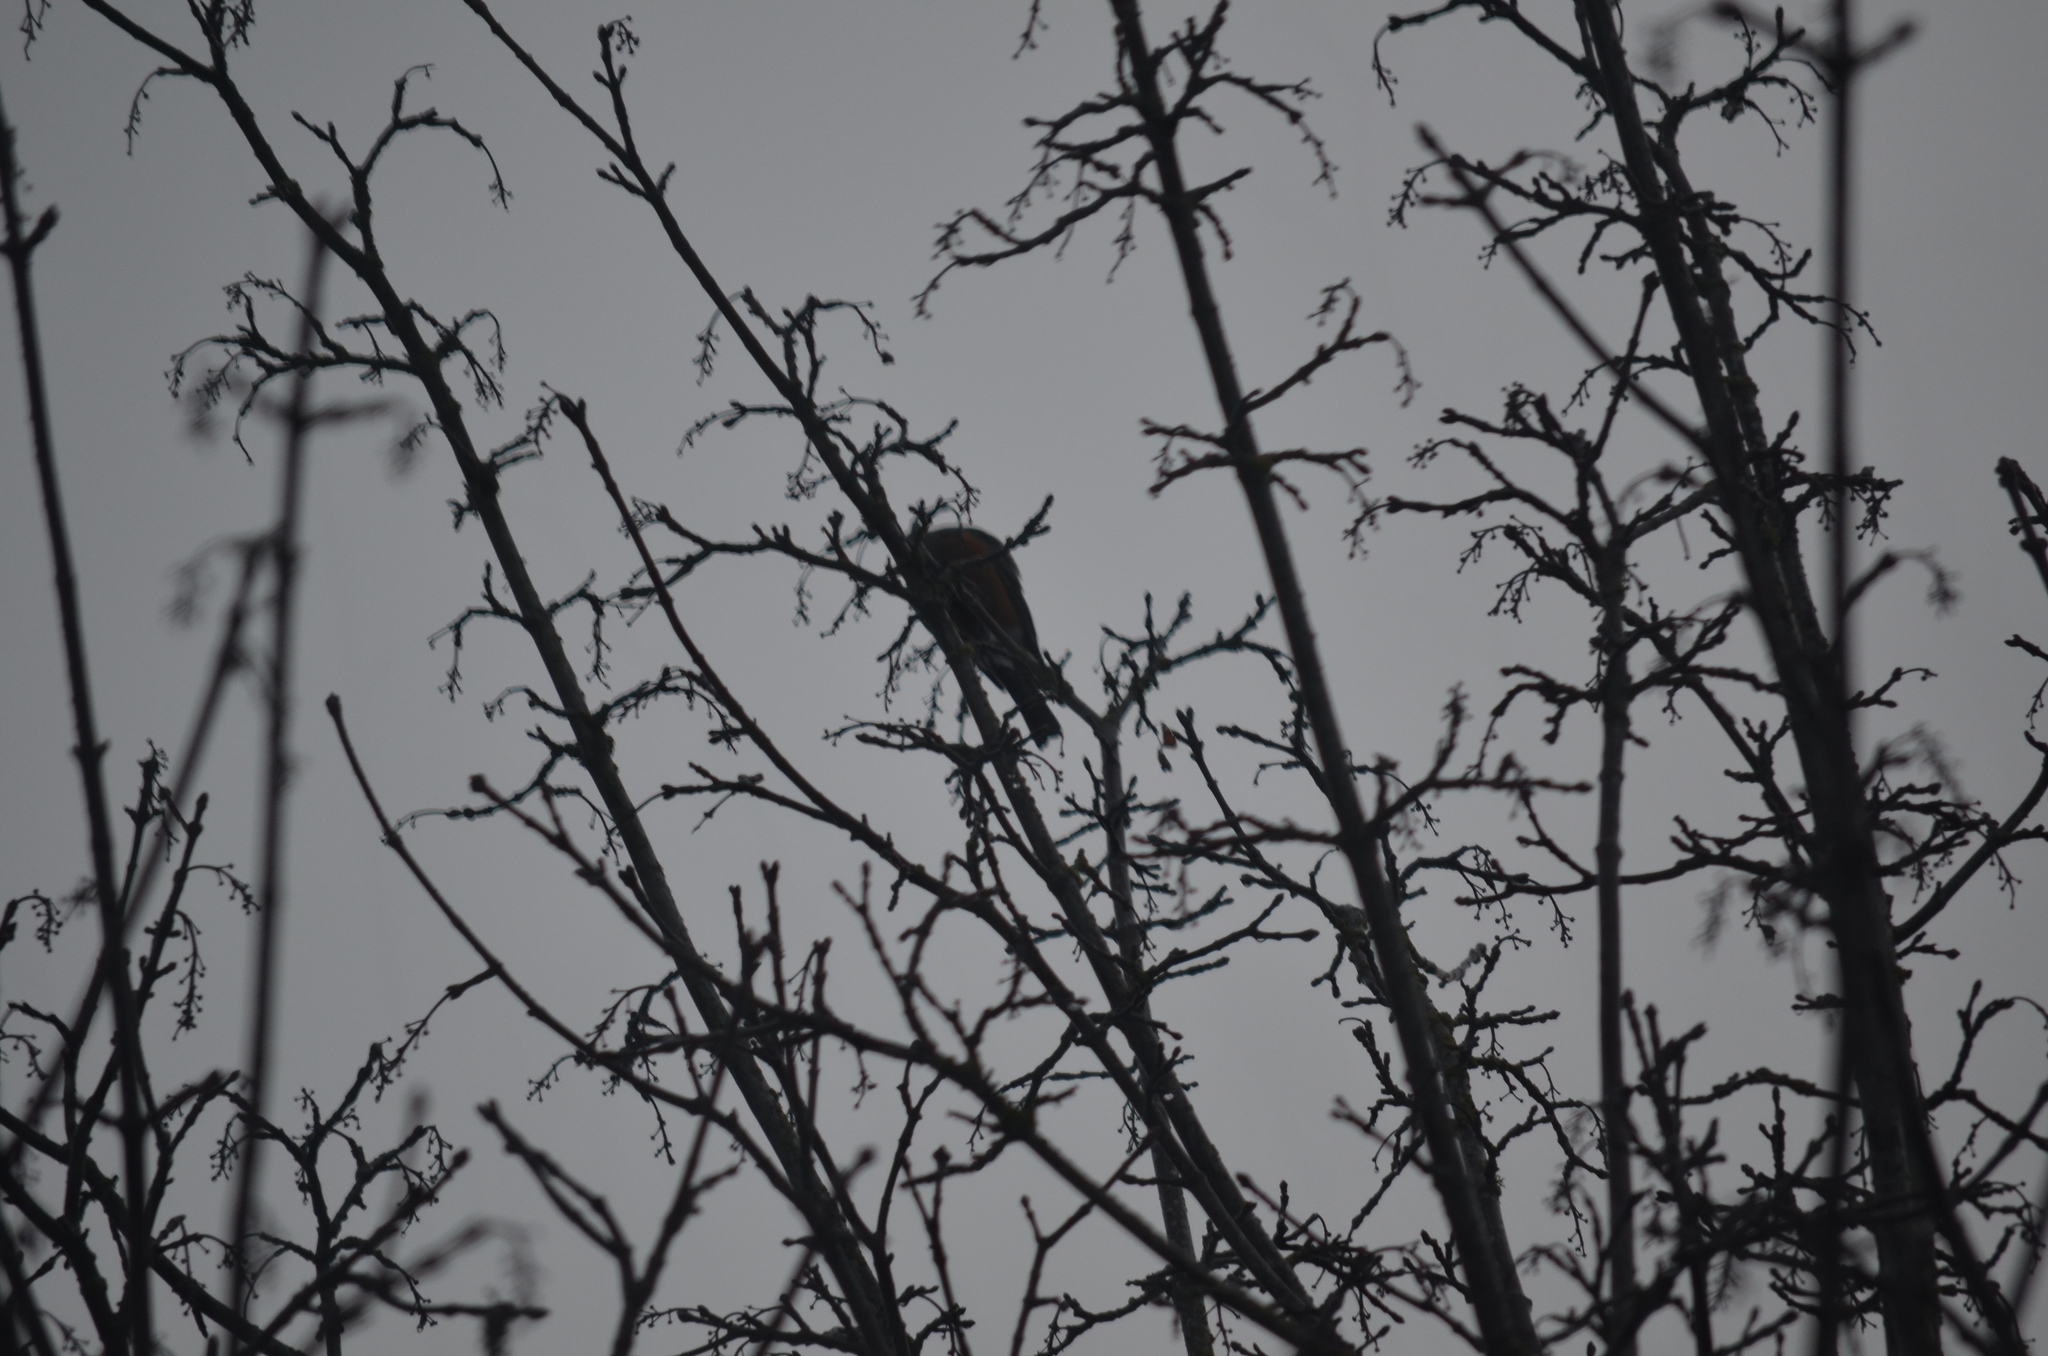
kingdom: Animalia
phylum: Chordata
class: Aves
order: Passeriformes
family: Turdidae
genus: Turdus
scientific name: Turdus migratorius
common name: American robin
